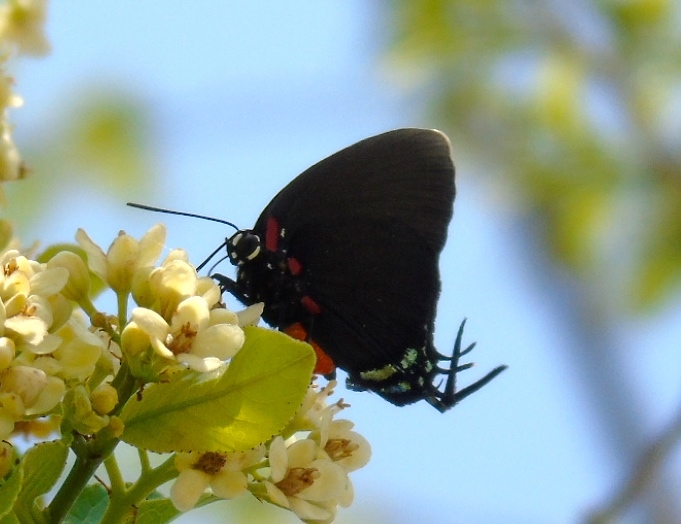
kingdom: Animalia
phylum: Arthropoda
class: Insecta
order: Lepidoptera
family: Lycaenidae
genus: Atlides
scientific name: Atlides
